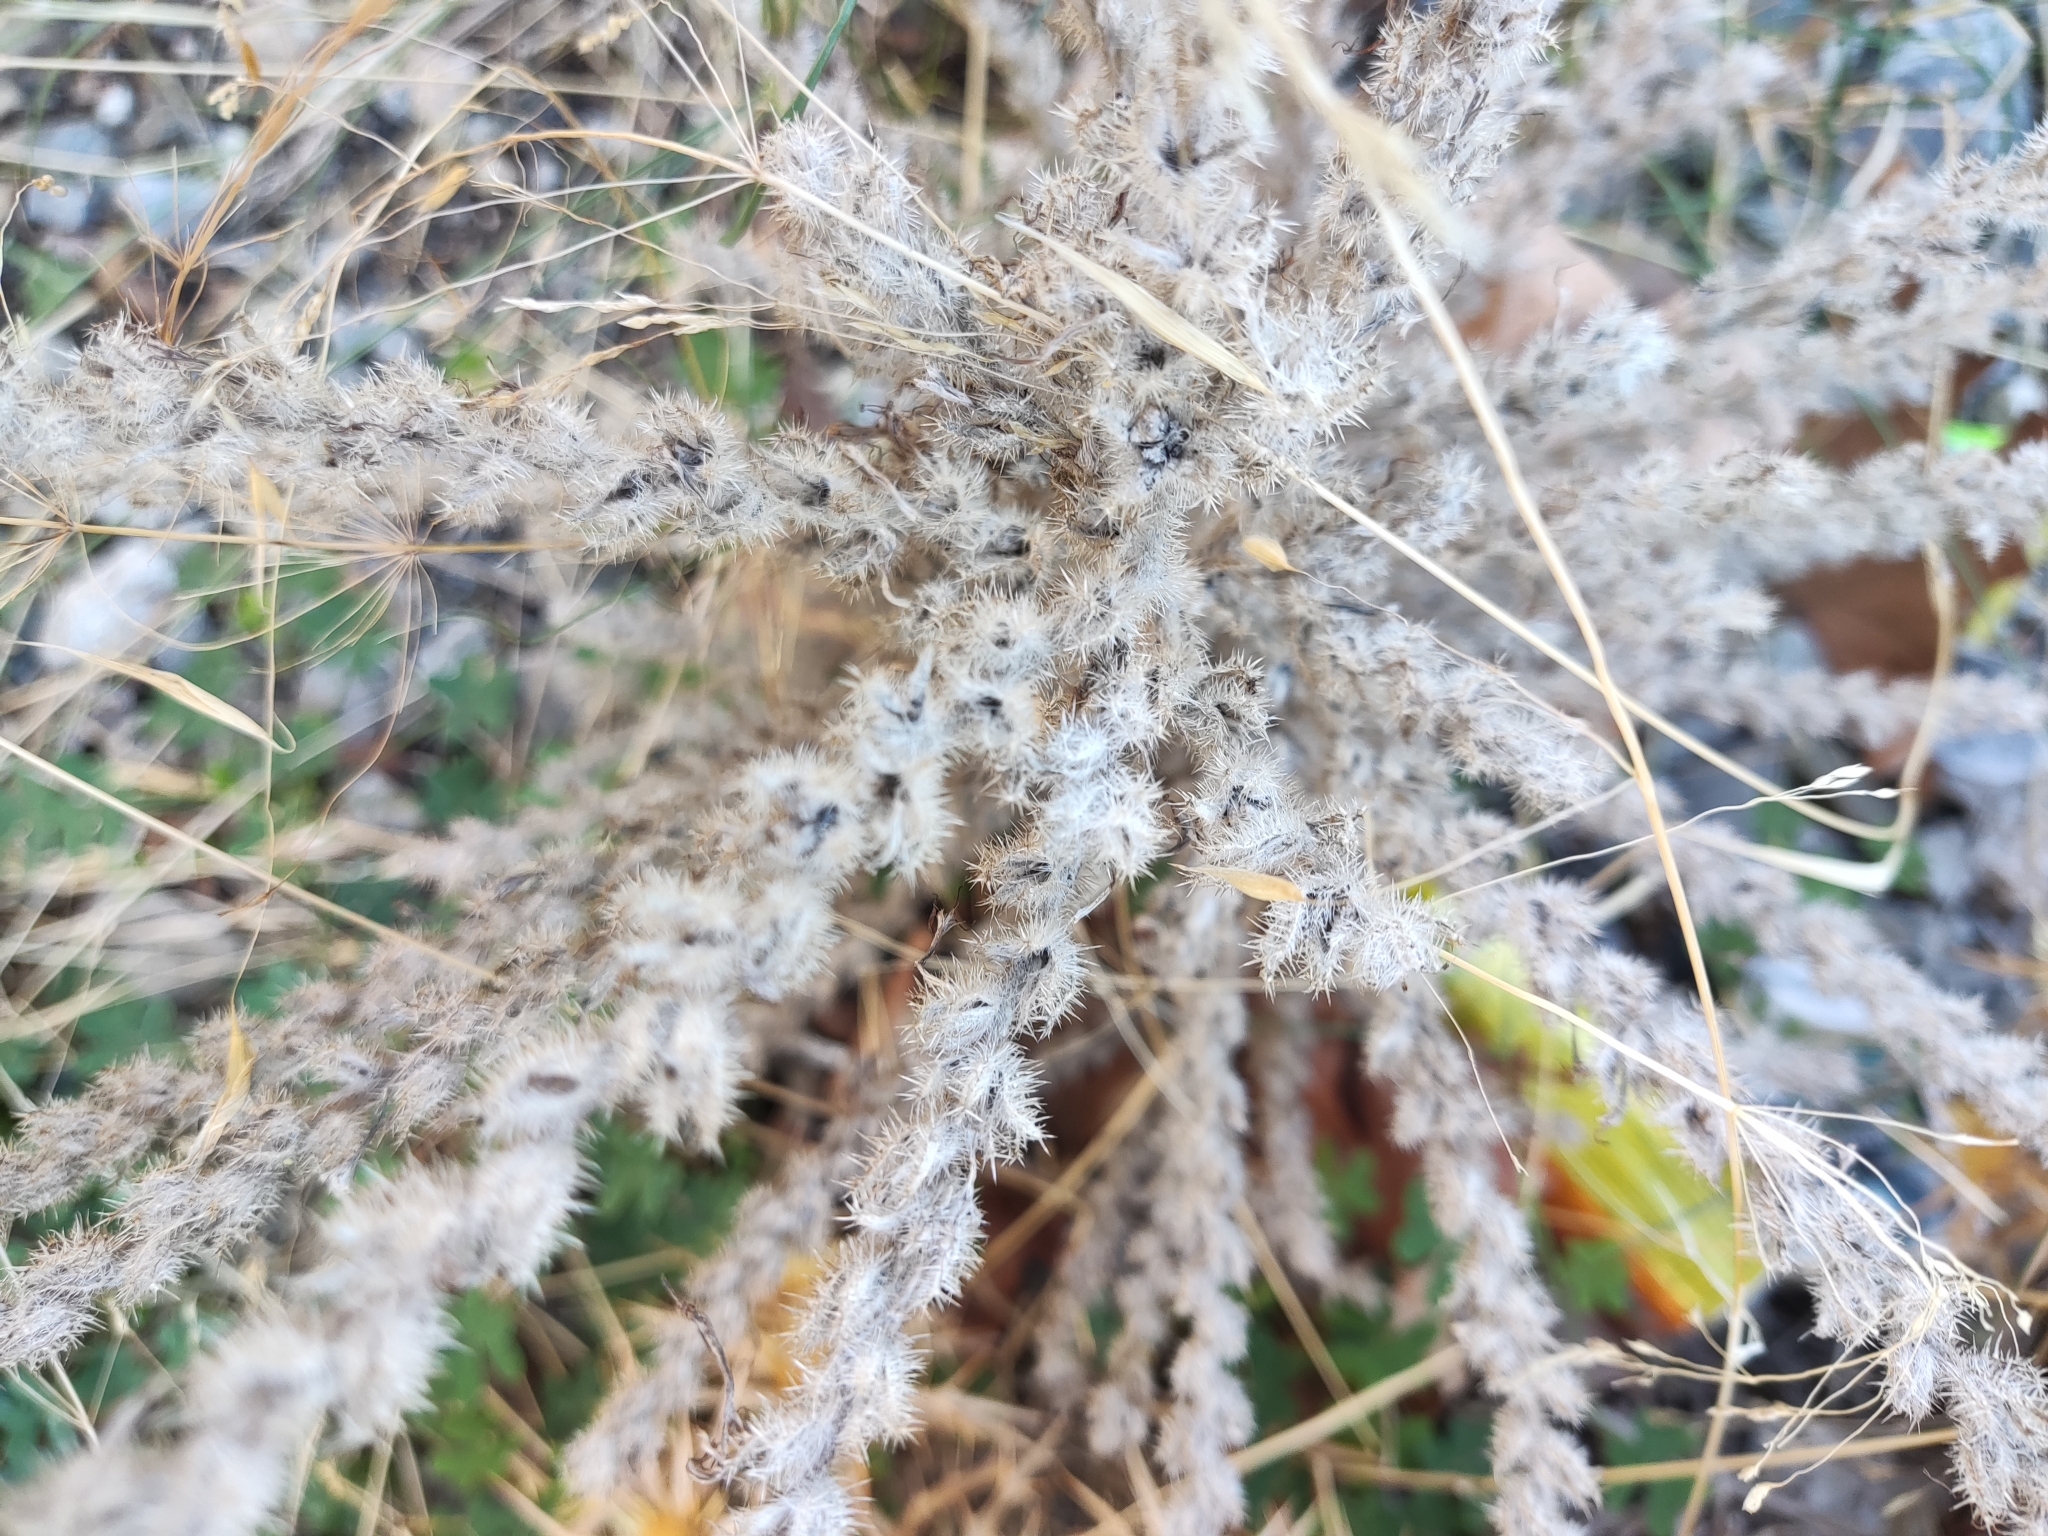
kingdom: Plantae
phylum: Tracheophyta
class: Magnoliopsida
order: Boraginales
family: Boraginaceae
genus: Echium
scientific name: Echium italicum
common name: Italian viper's bugloss
